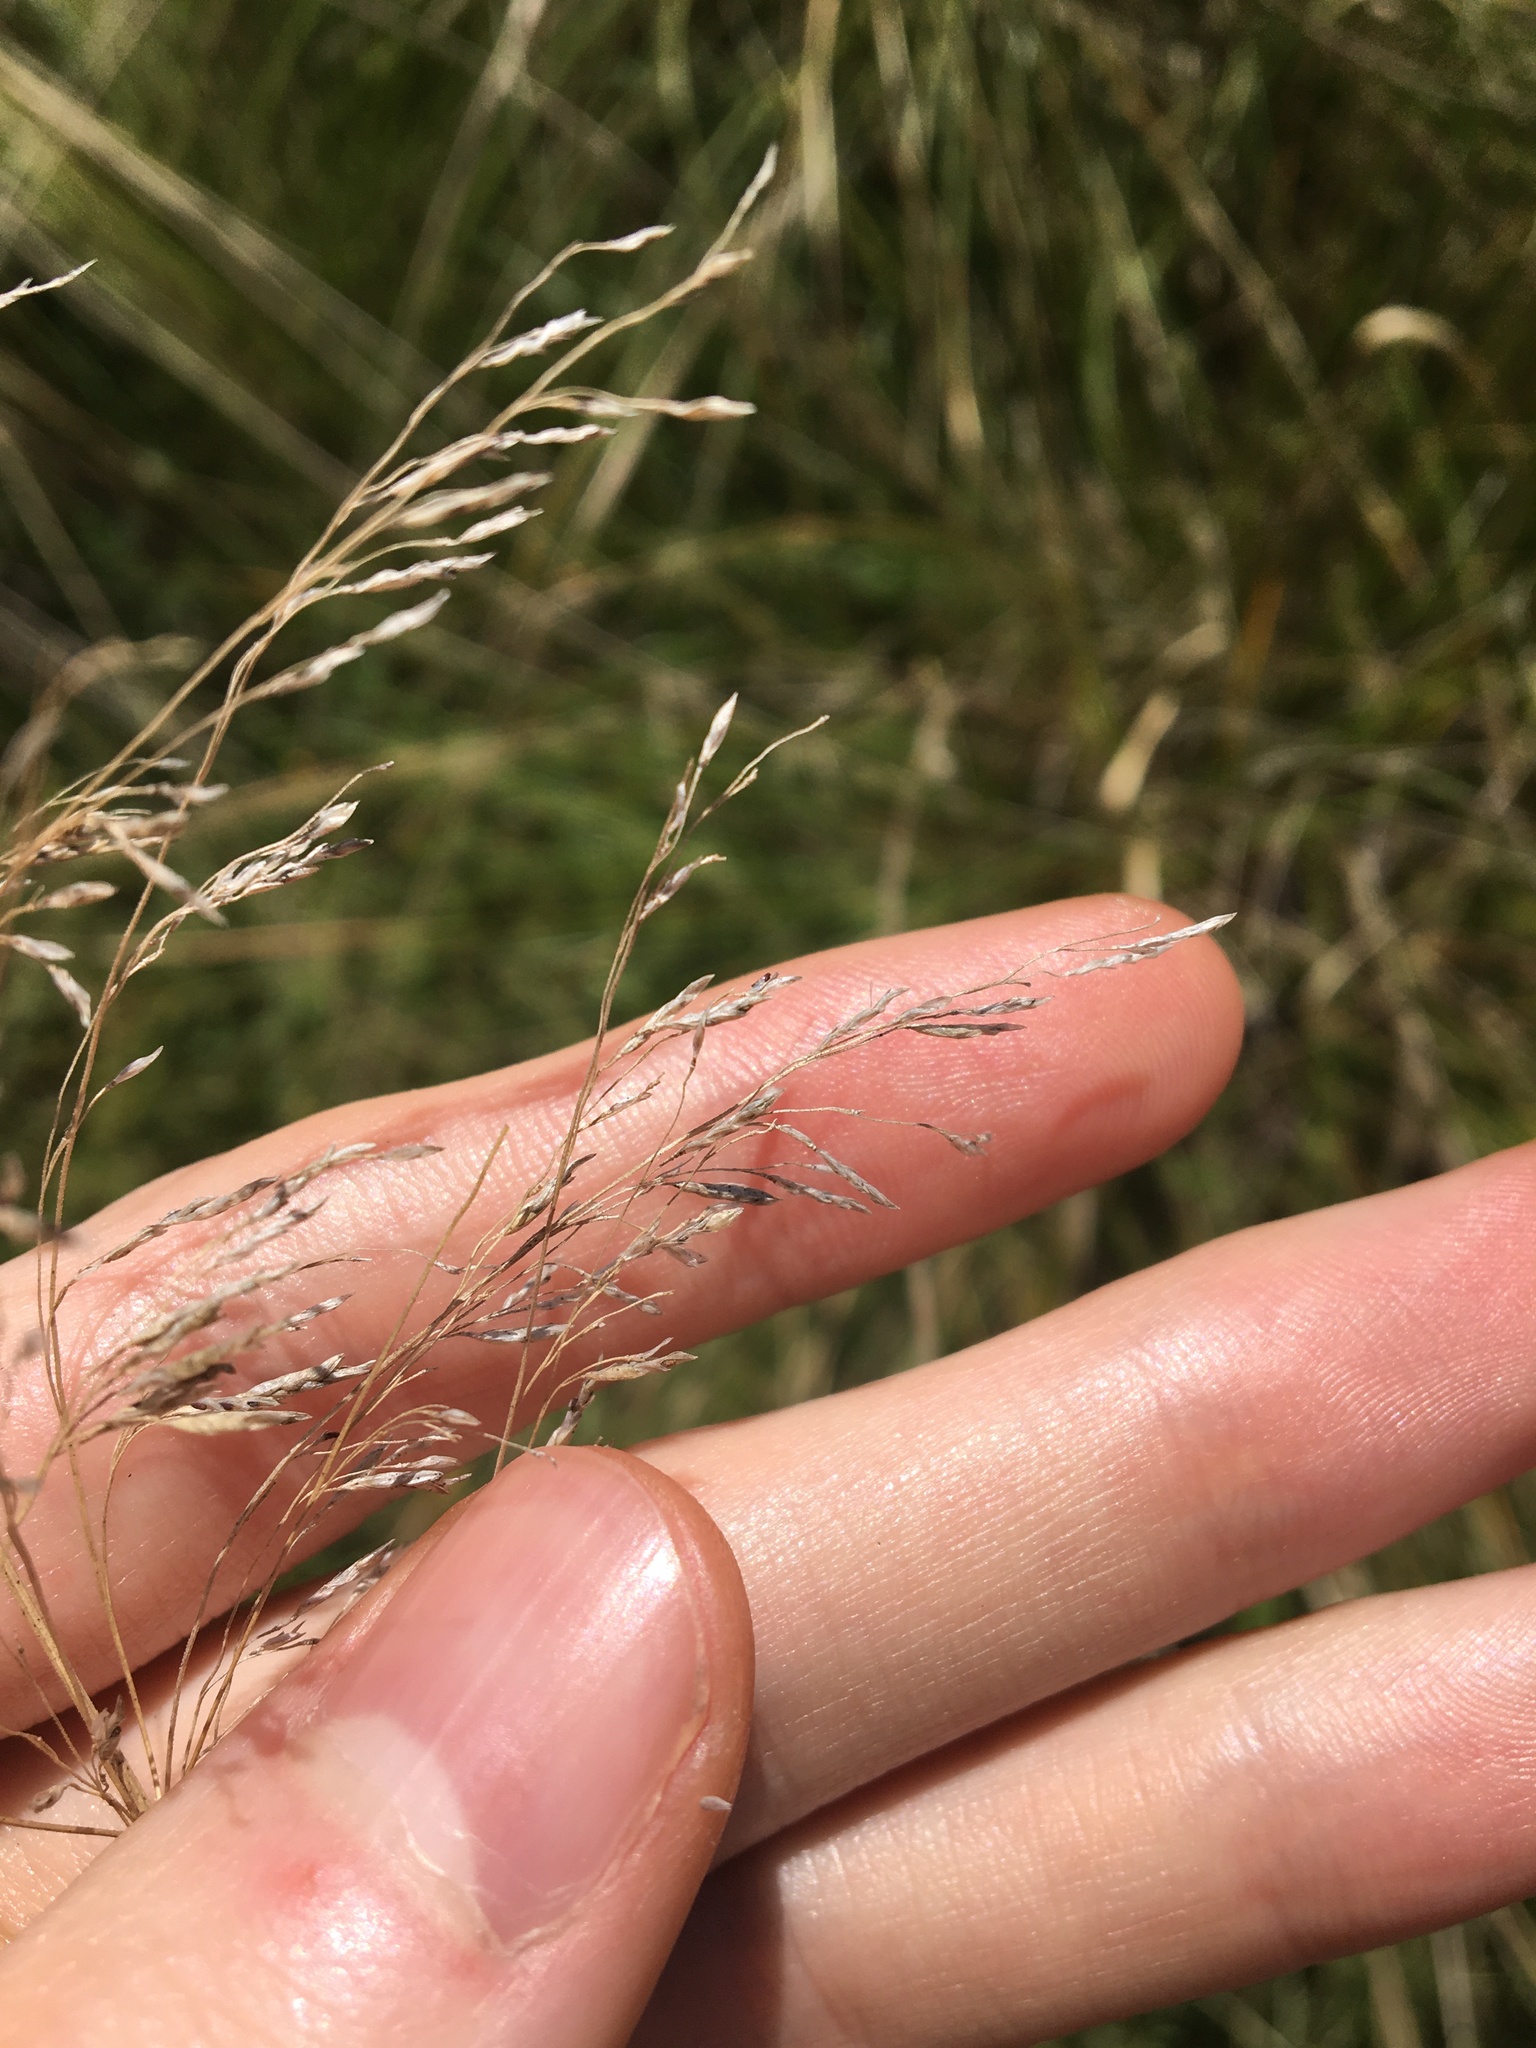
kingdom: Plantae
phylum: Tracheophyta
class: Liliopsida
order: Poales
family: Poaceae
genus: Eragrostis
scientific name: Eragrostis curvula
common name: African love-grass
